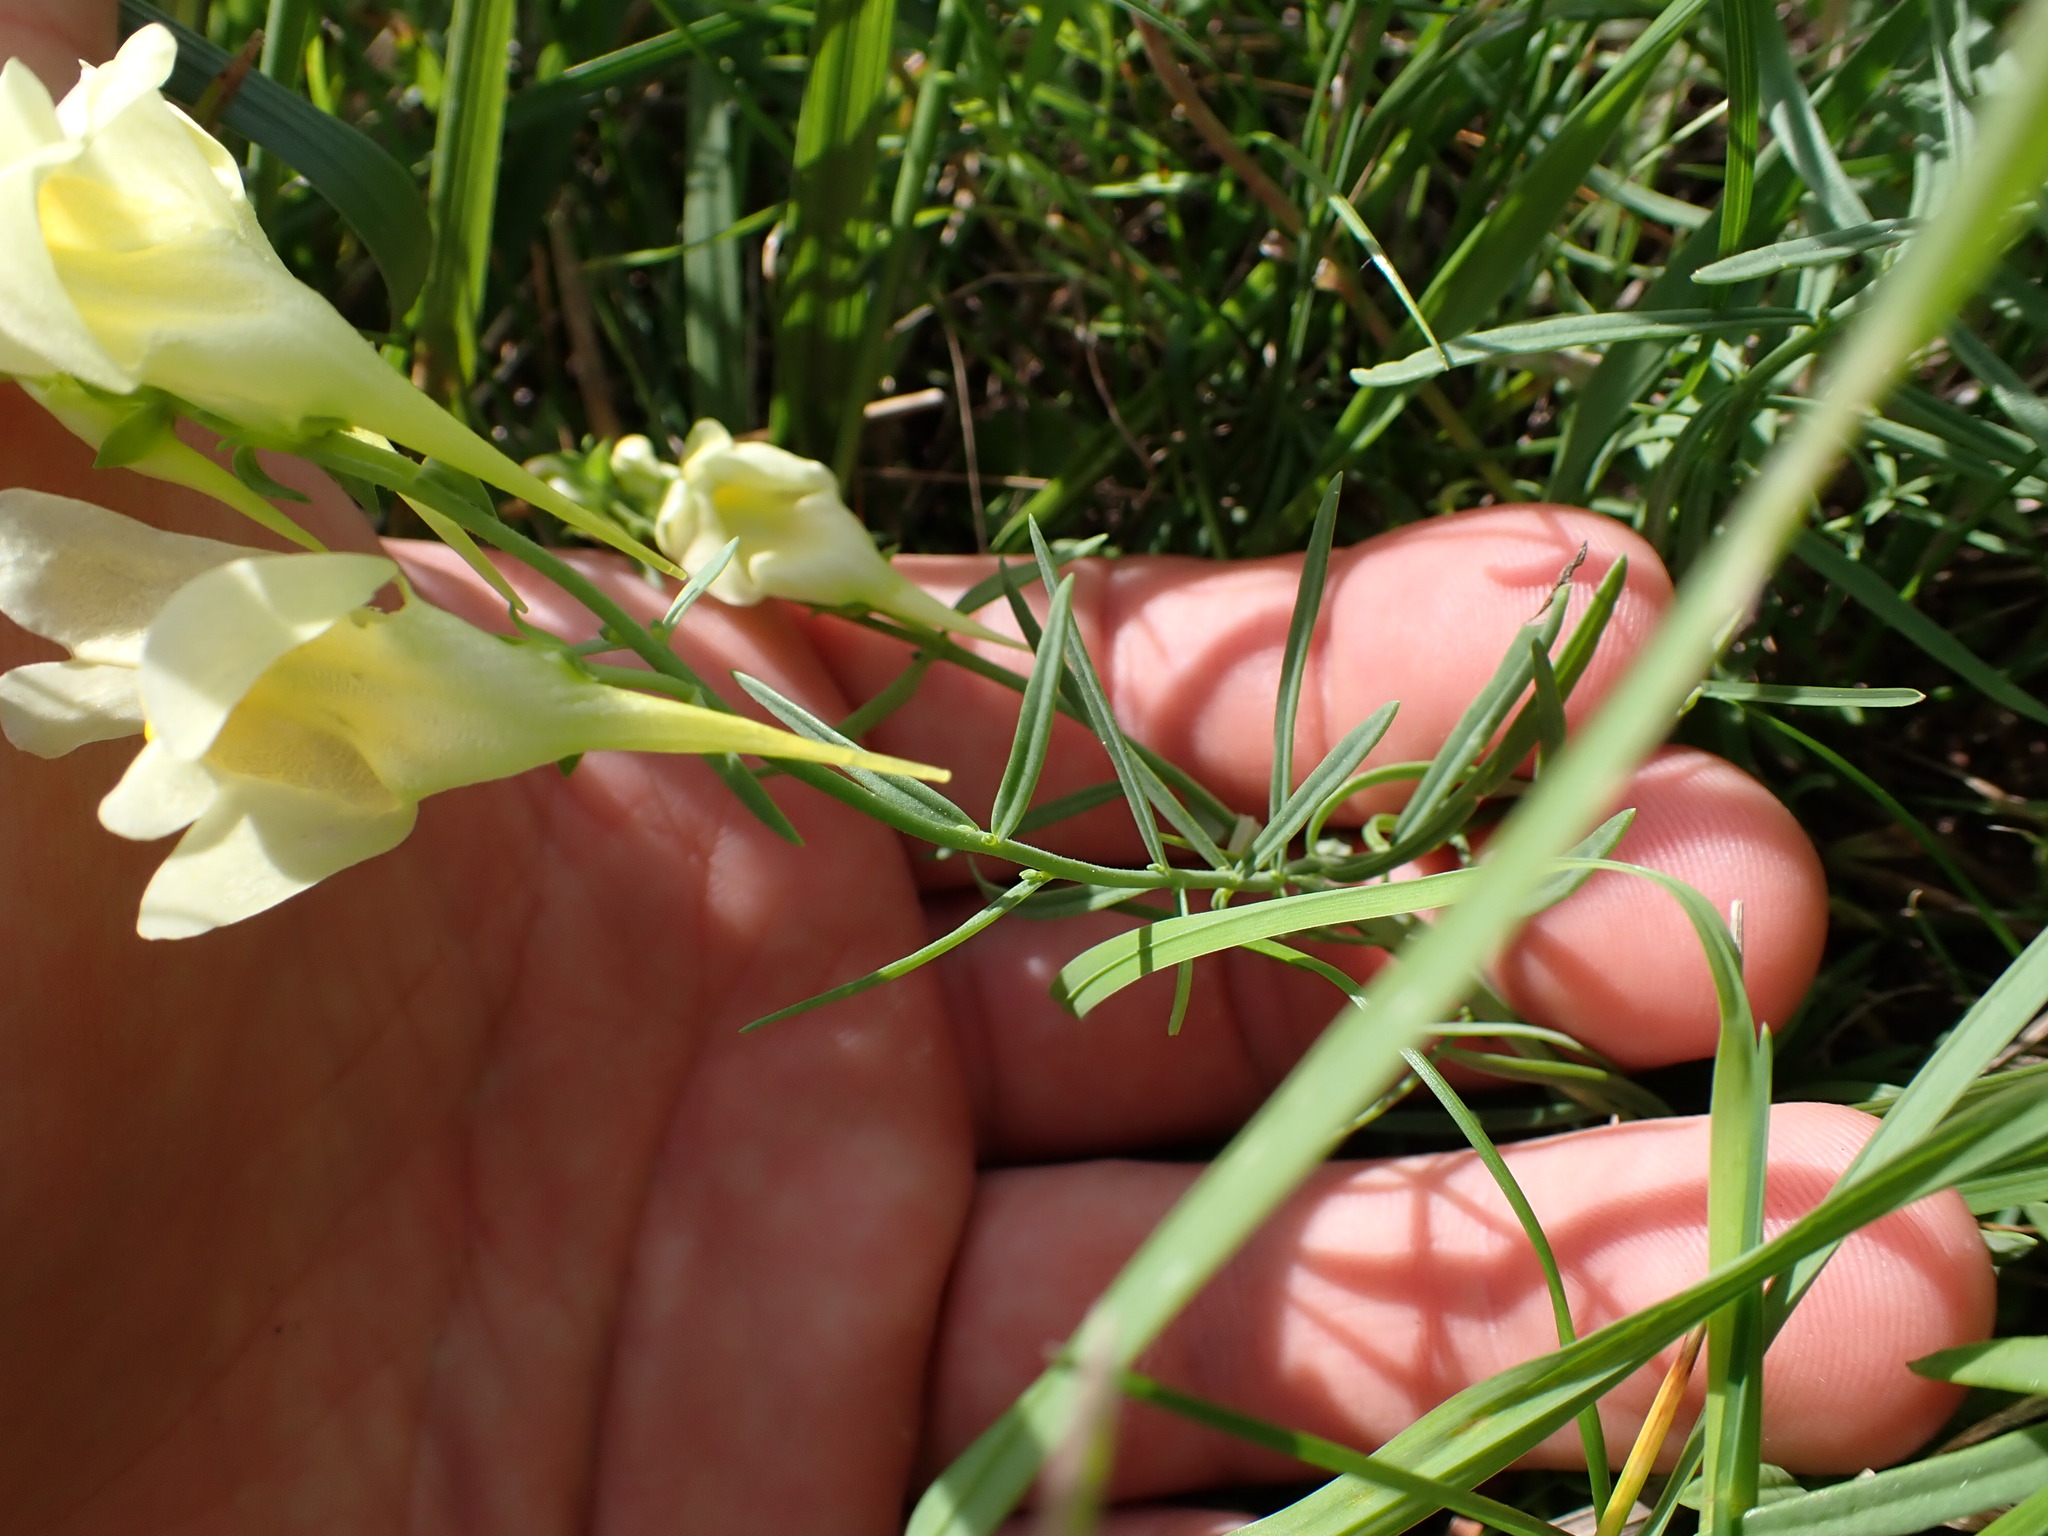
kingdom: Plantae
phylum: Tracheophyta
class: Magnoliopsida
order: Lamiales
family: Plantaginaceae
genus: Linaria
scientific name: Linaria vulgaris
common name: Butter and eggs
